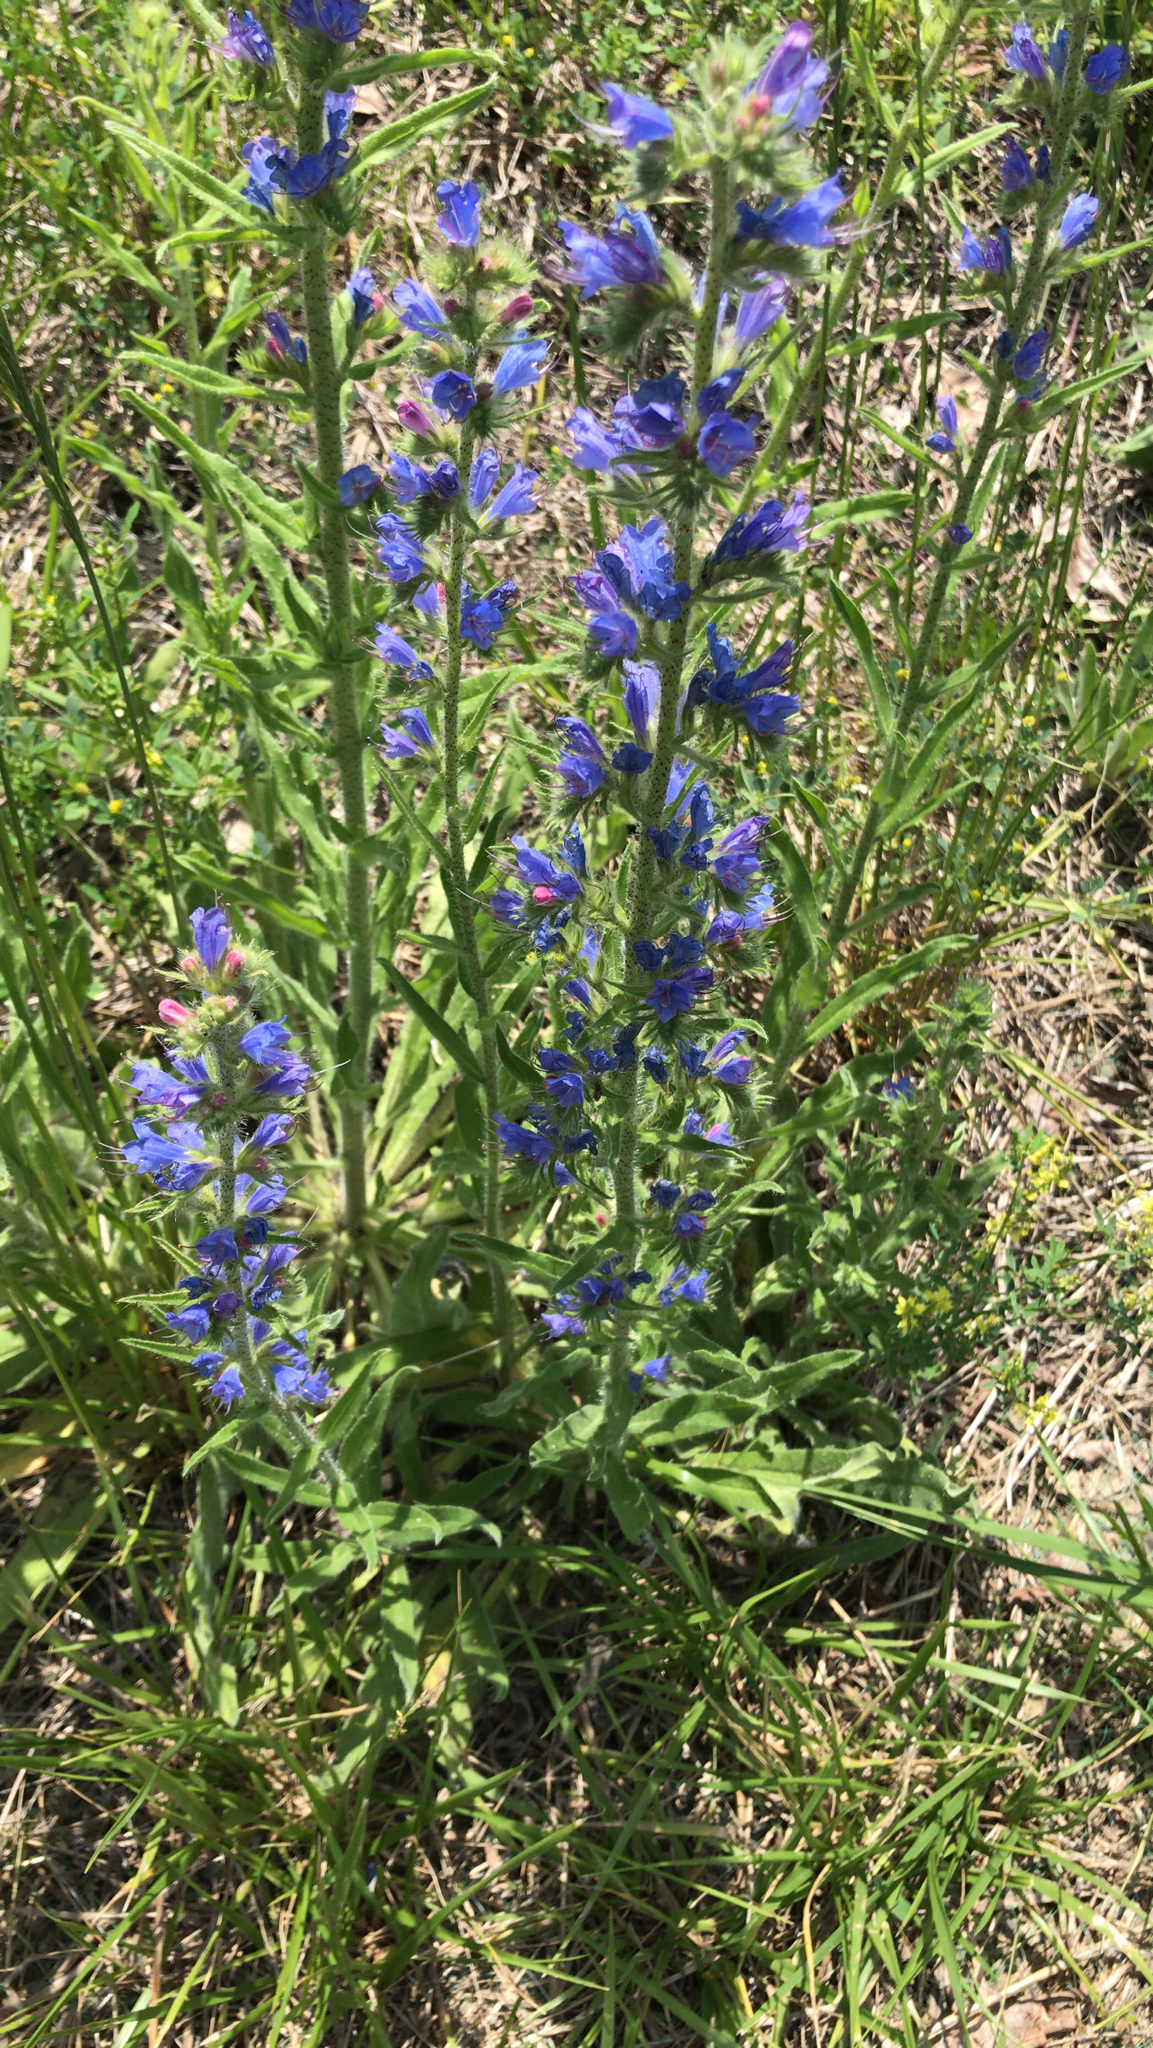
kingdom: Plantae
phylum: Tracheophyta
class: Magnoliopsida
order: Boraginales
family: Boraginaceae
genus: Echium
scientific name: Echium vulgare
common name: Common viper's bugloss
